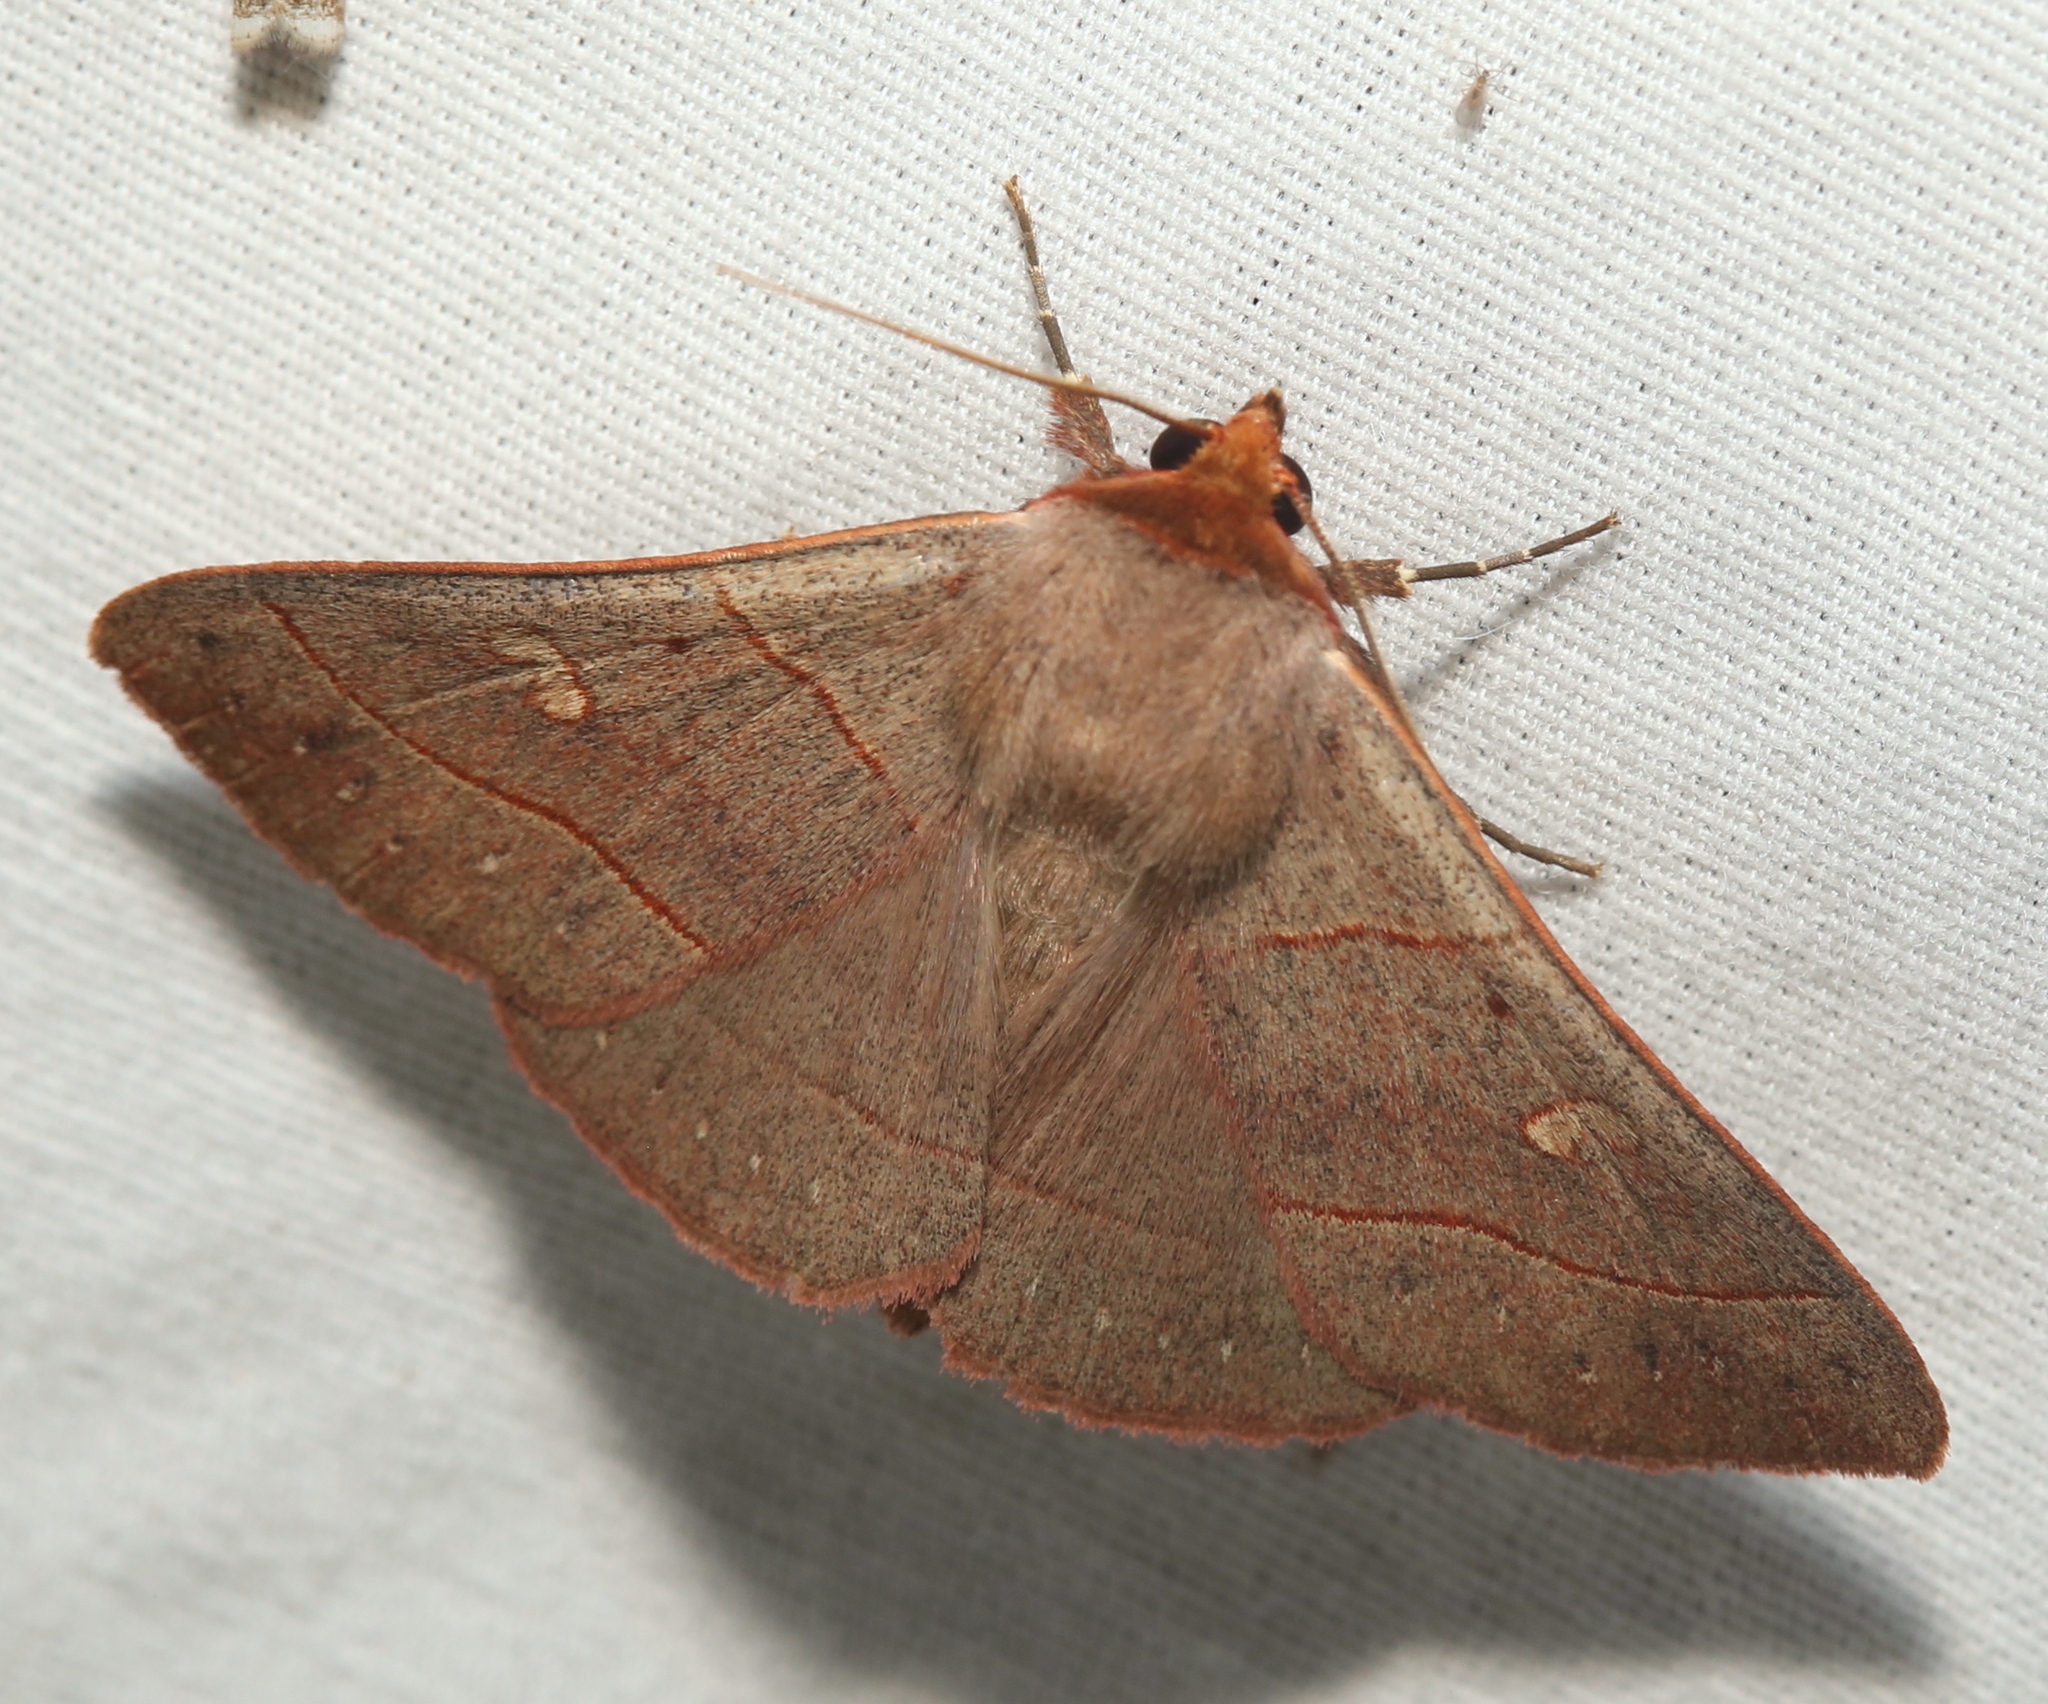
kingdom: Animalia
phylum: Arthropoda
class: Insecta
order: Lepidoptera
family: Erebidae
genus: Panopoda
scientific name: Panopoda rufimargo
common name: Red-lined panopoda moth
